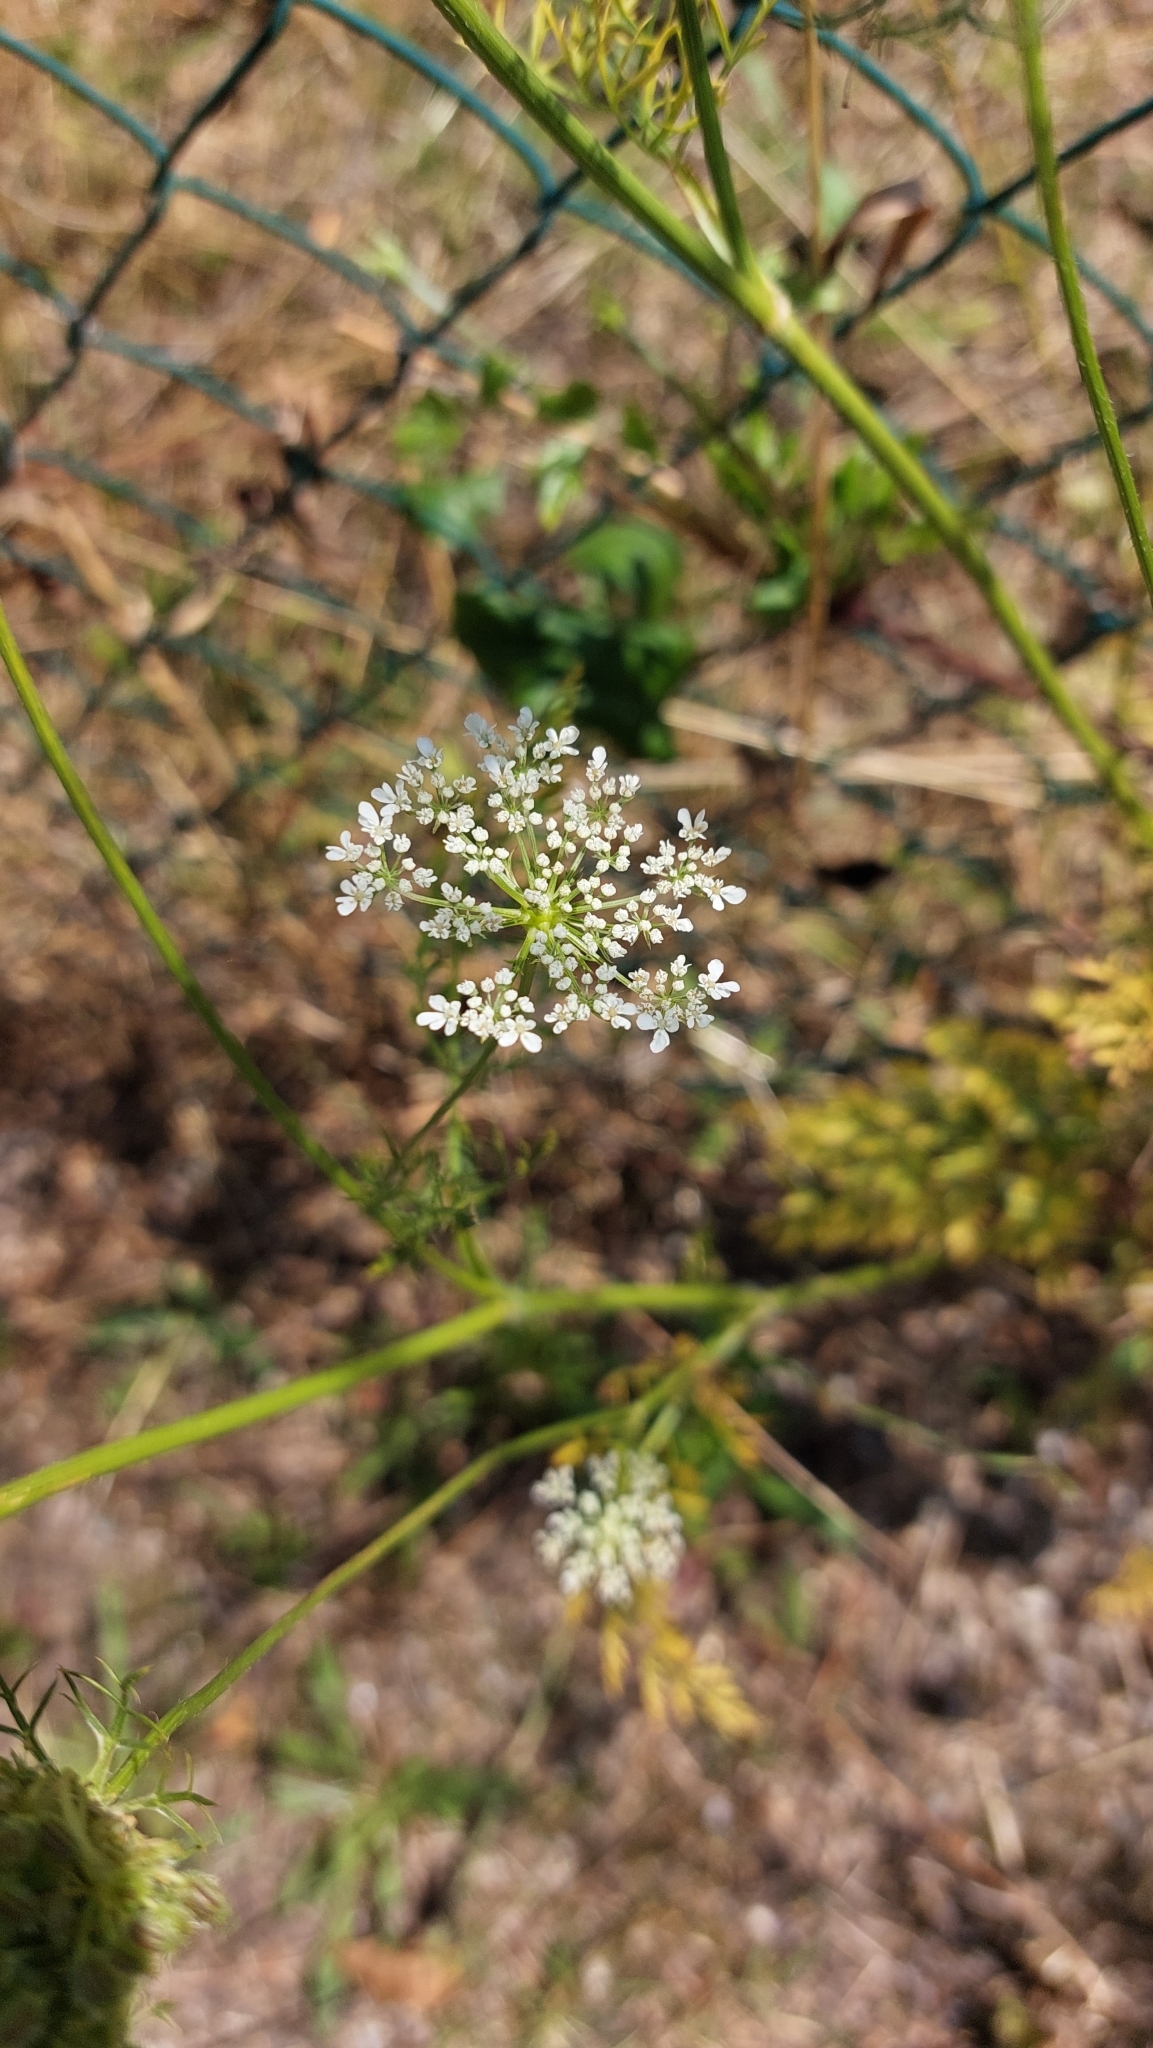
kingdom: Plantae
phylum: Tracheophyta
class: Magnoliopsida
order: Apiales
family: Apiaceae
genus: Daucus
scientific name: Daucus carota
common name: Wild carrot
